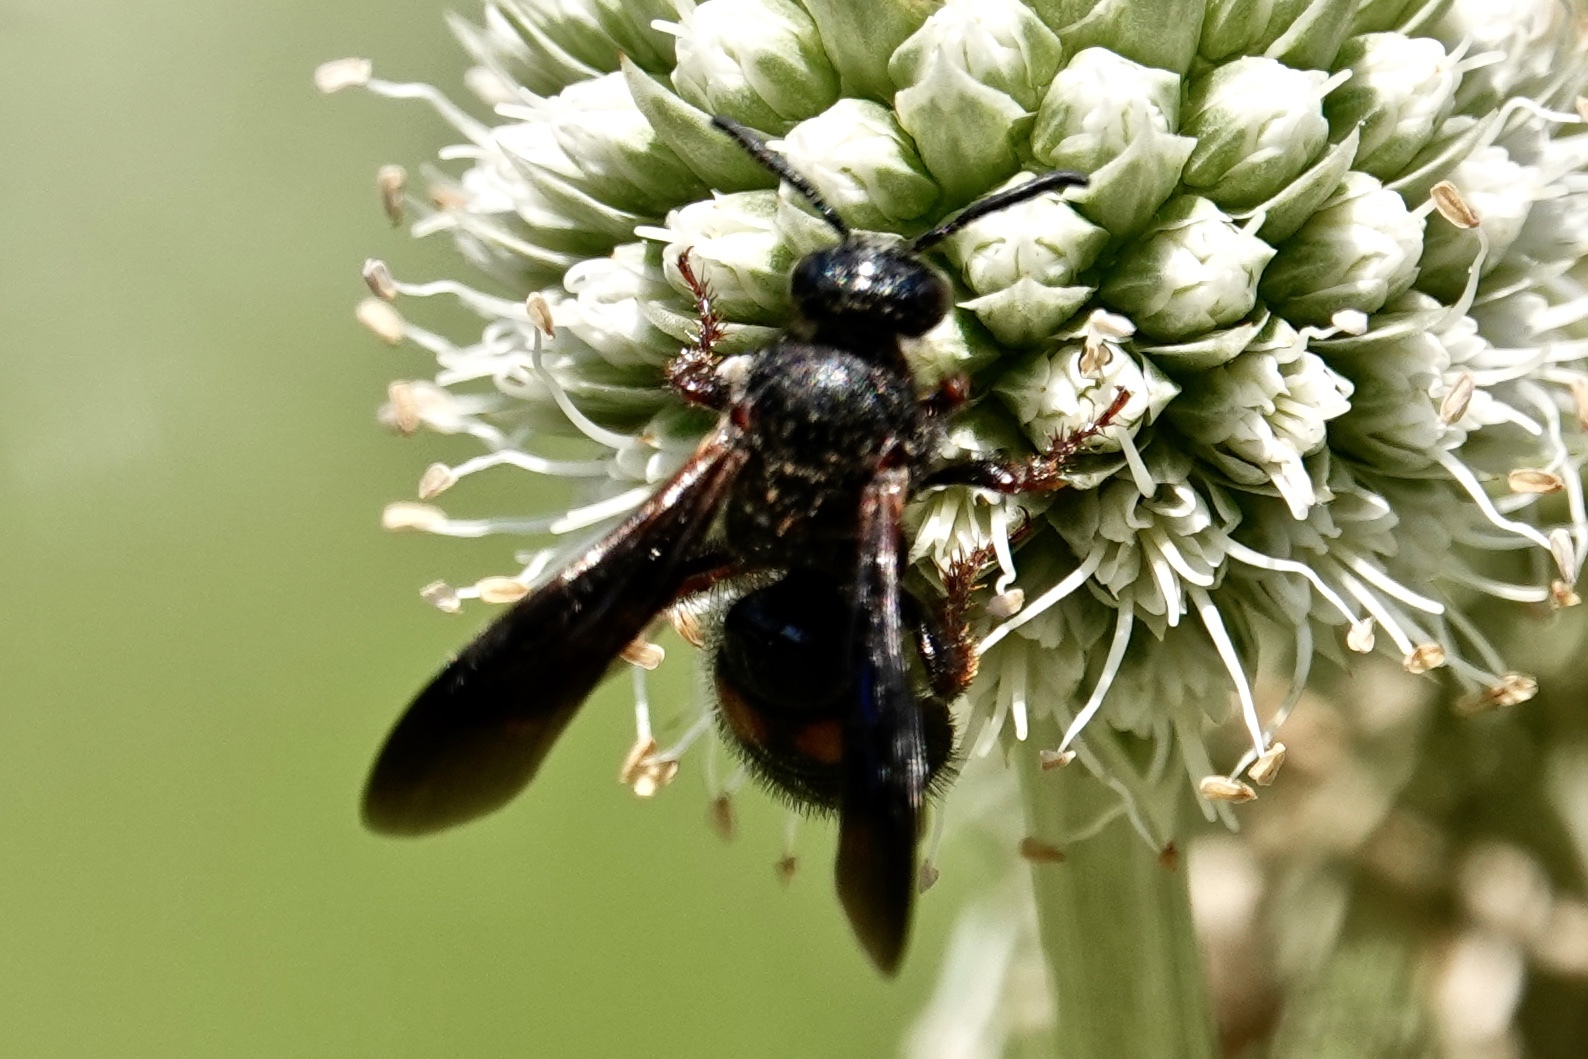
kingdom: Animalia
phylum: Arthropoda
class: Insecta
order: Hymenoptera
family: Scoliidae
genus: Scolia
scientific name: Scolia nobilitata
